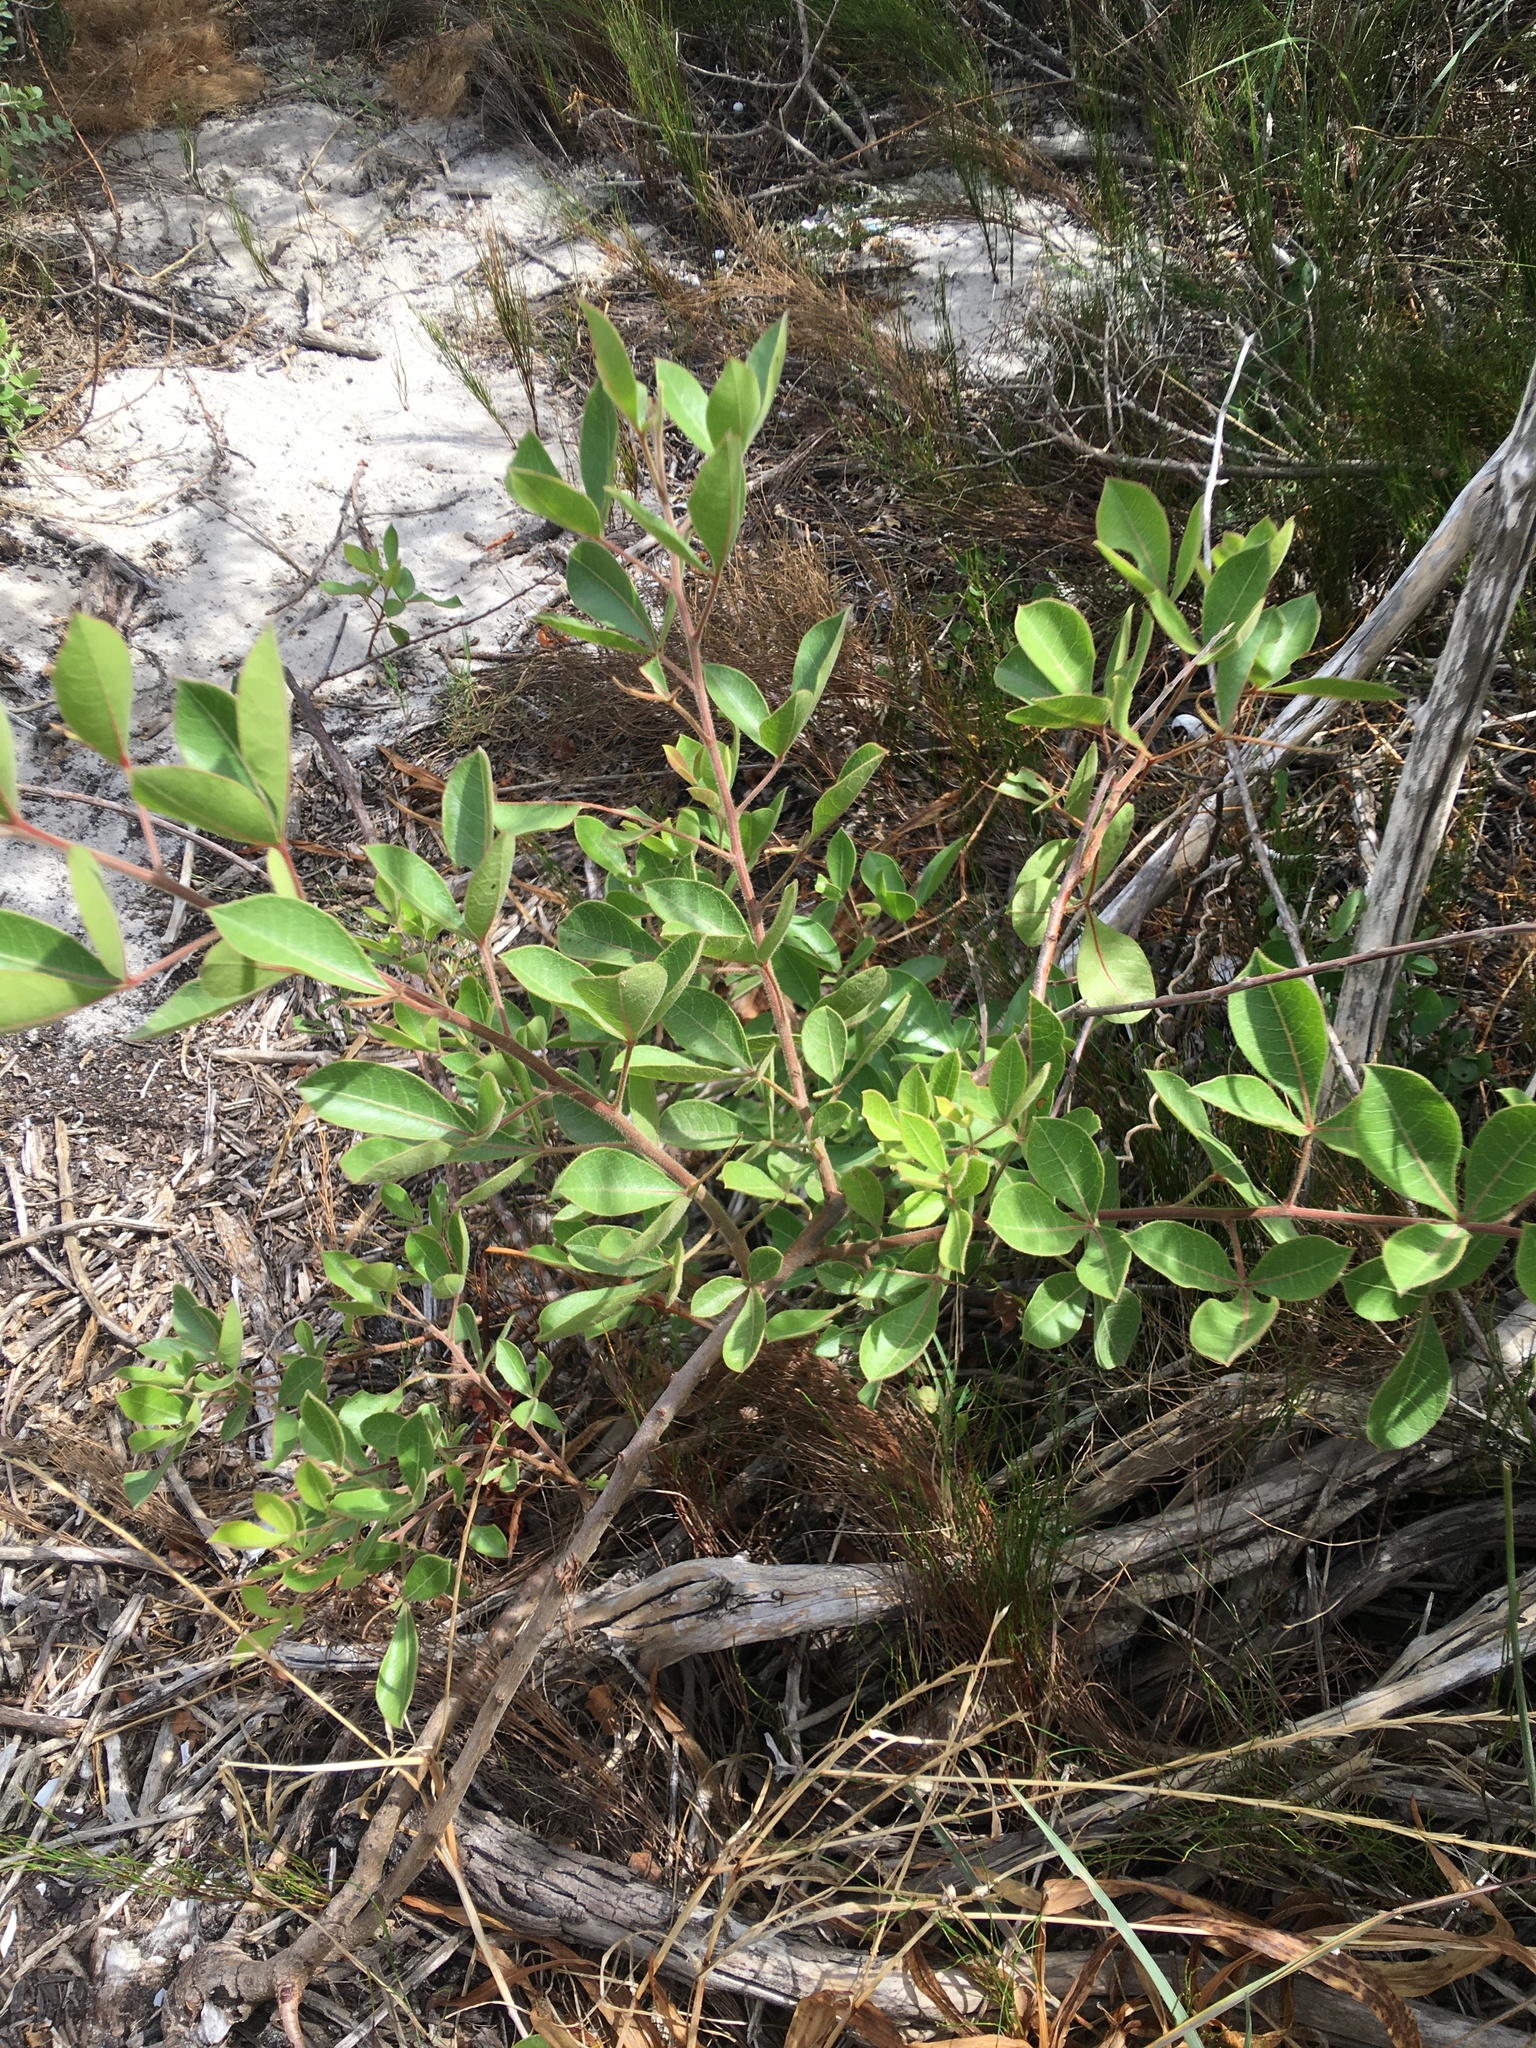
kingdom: Plantae
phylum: Tracheophyta
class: Magnoliopsida
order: Sapindales
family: Anacardiaceae
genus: Searsia
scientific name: Searsia laevigata
